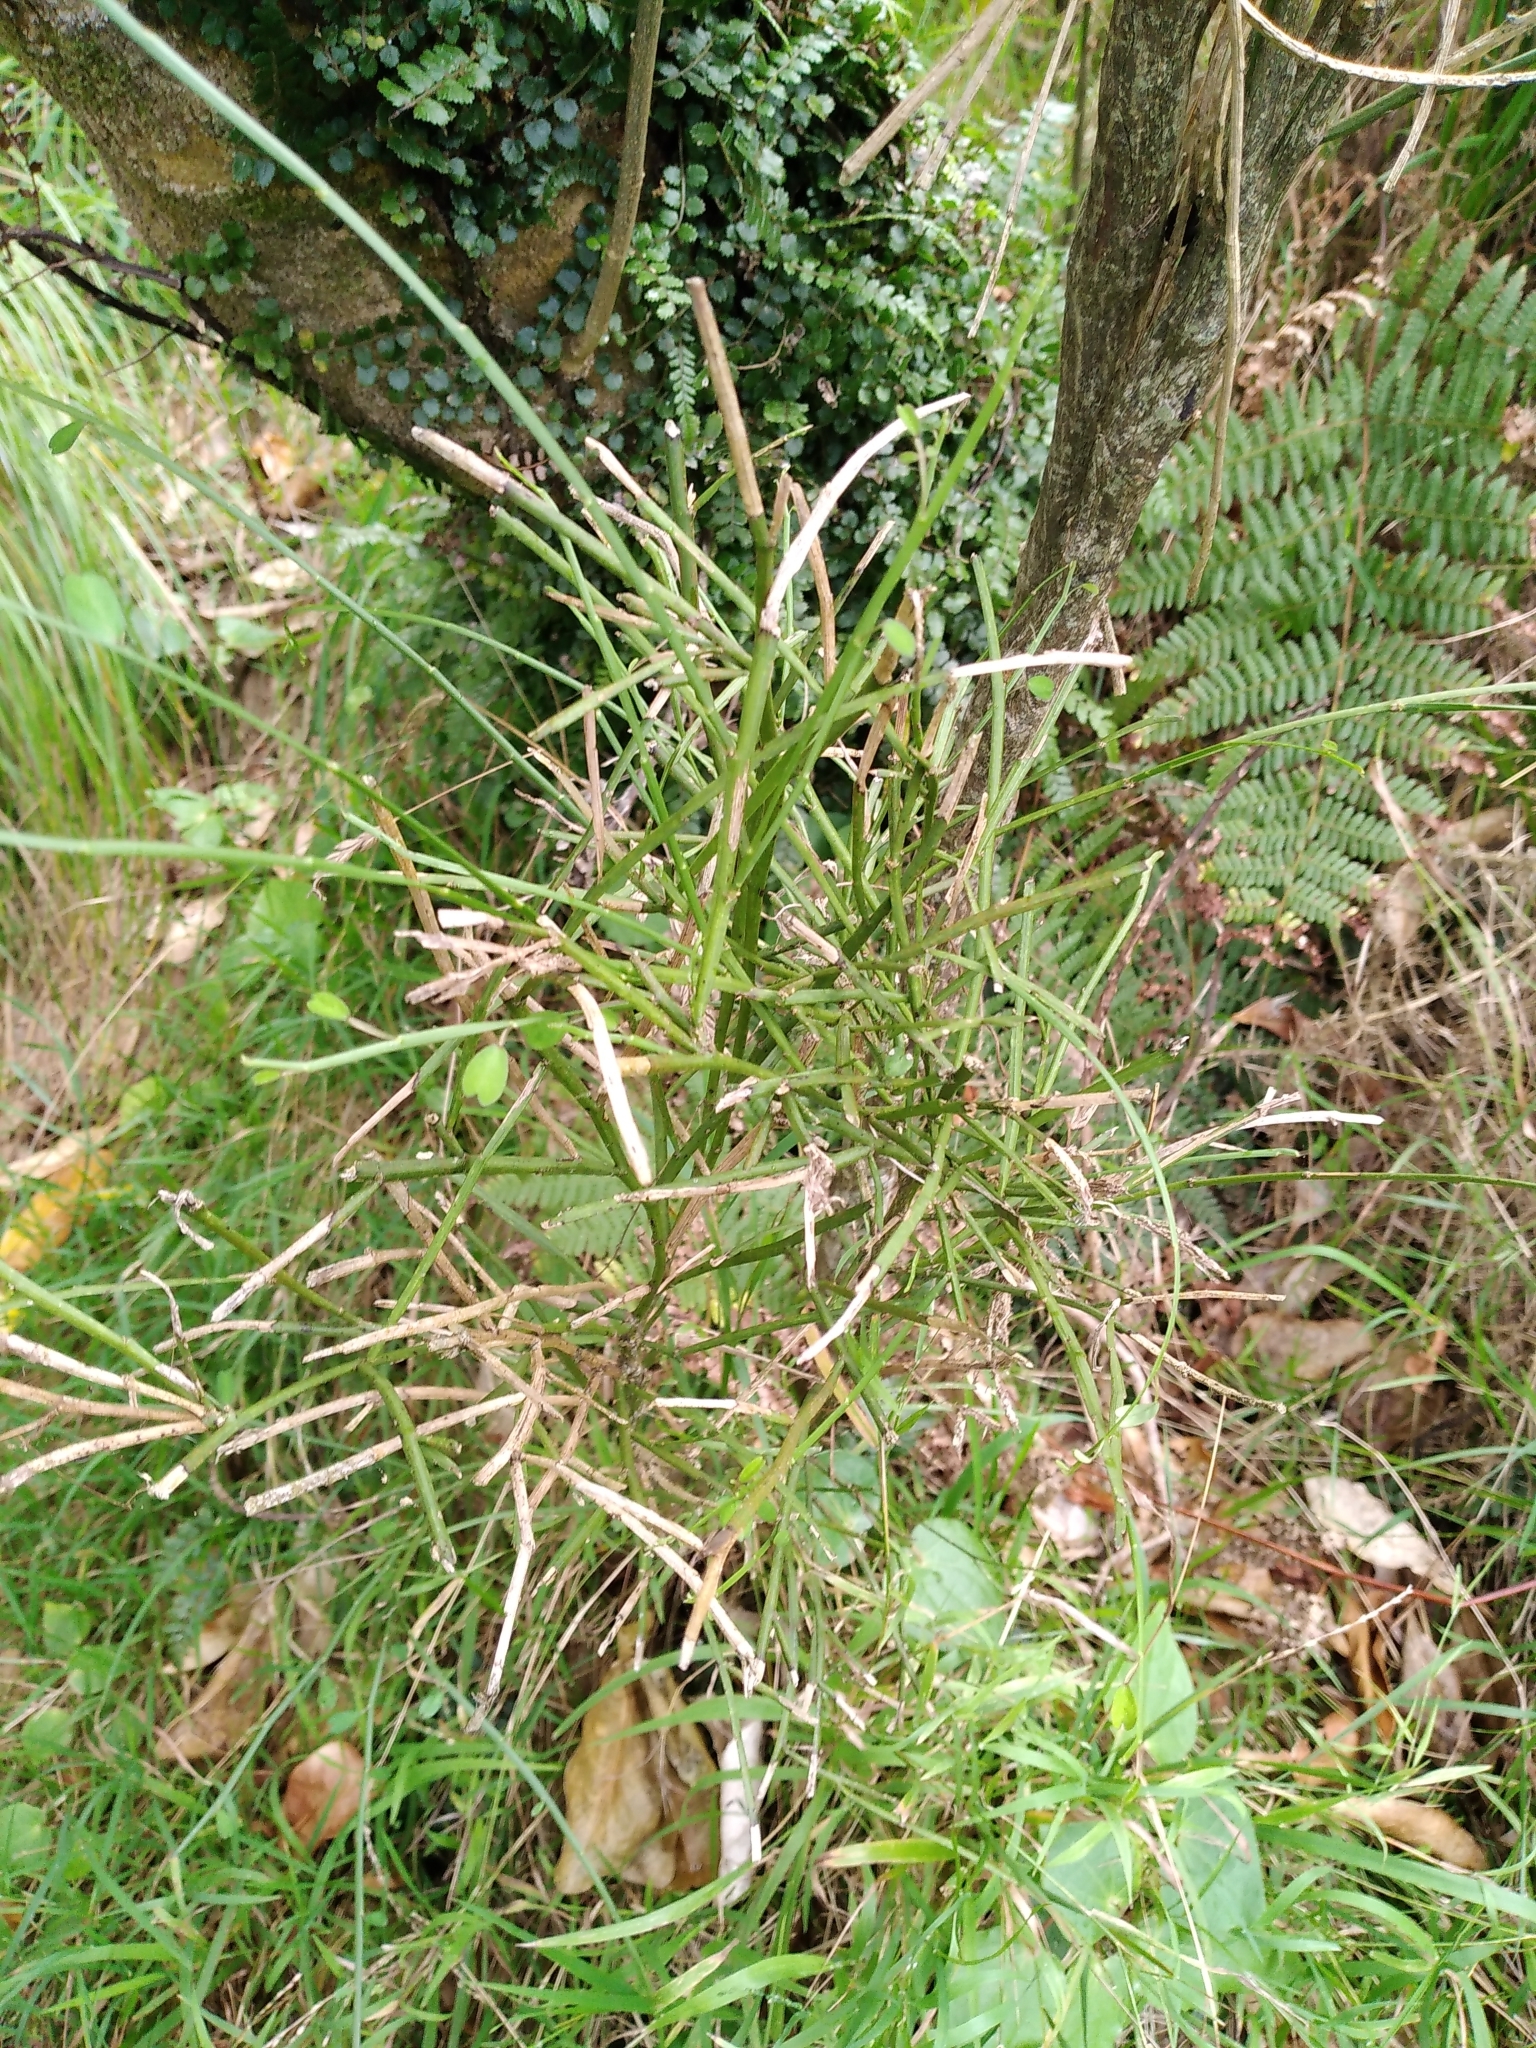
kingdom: Plantae
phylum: Tracheophyta
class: Magnoliopsida
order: Fabales
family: Fabaceae
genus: Carmichaelia
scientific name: Carmichaelia australis
